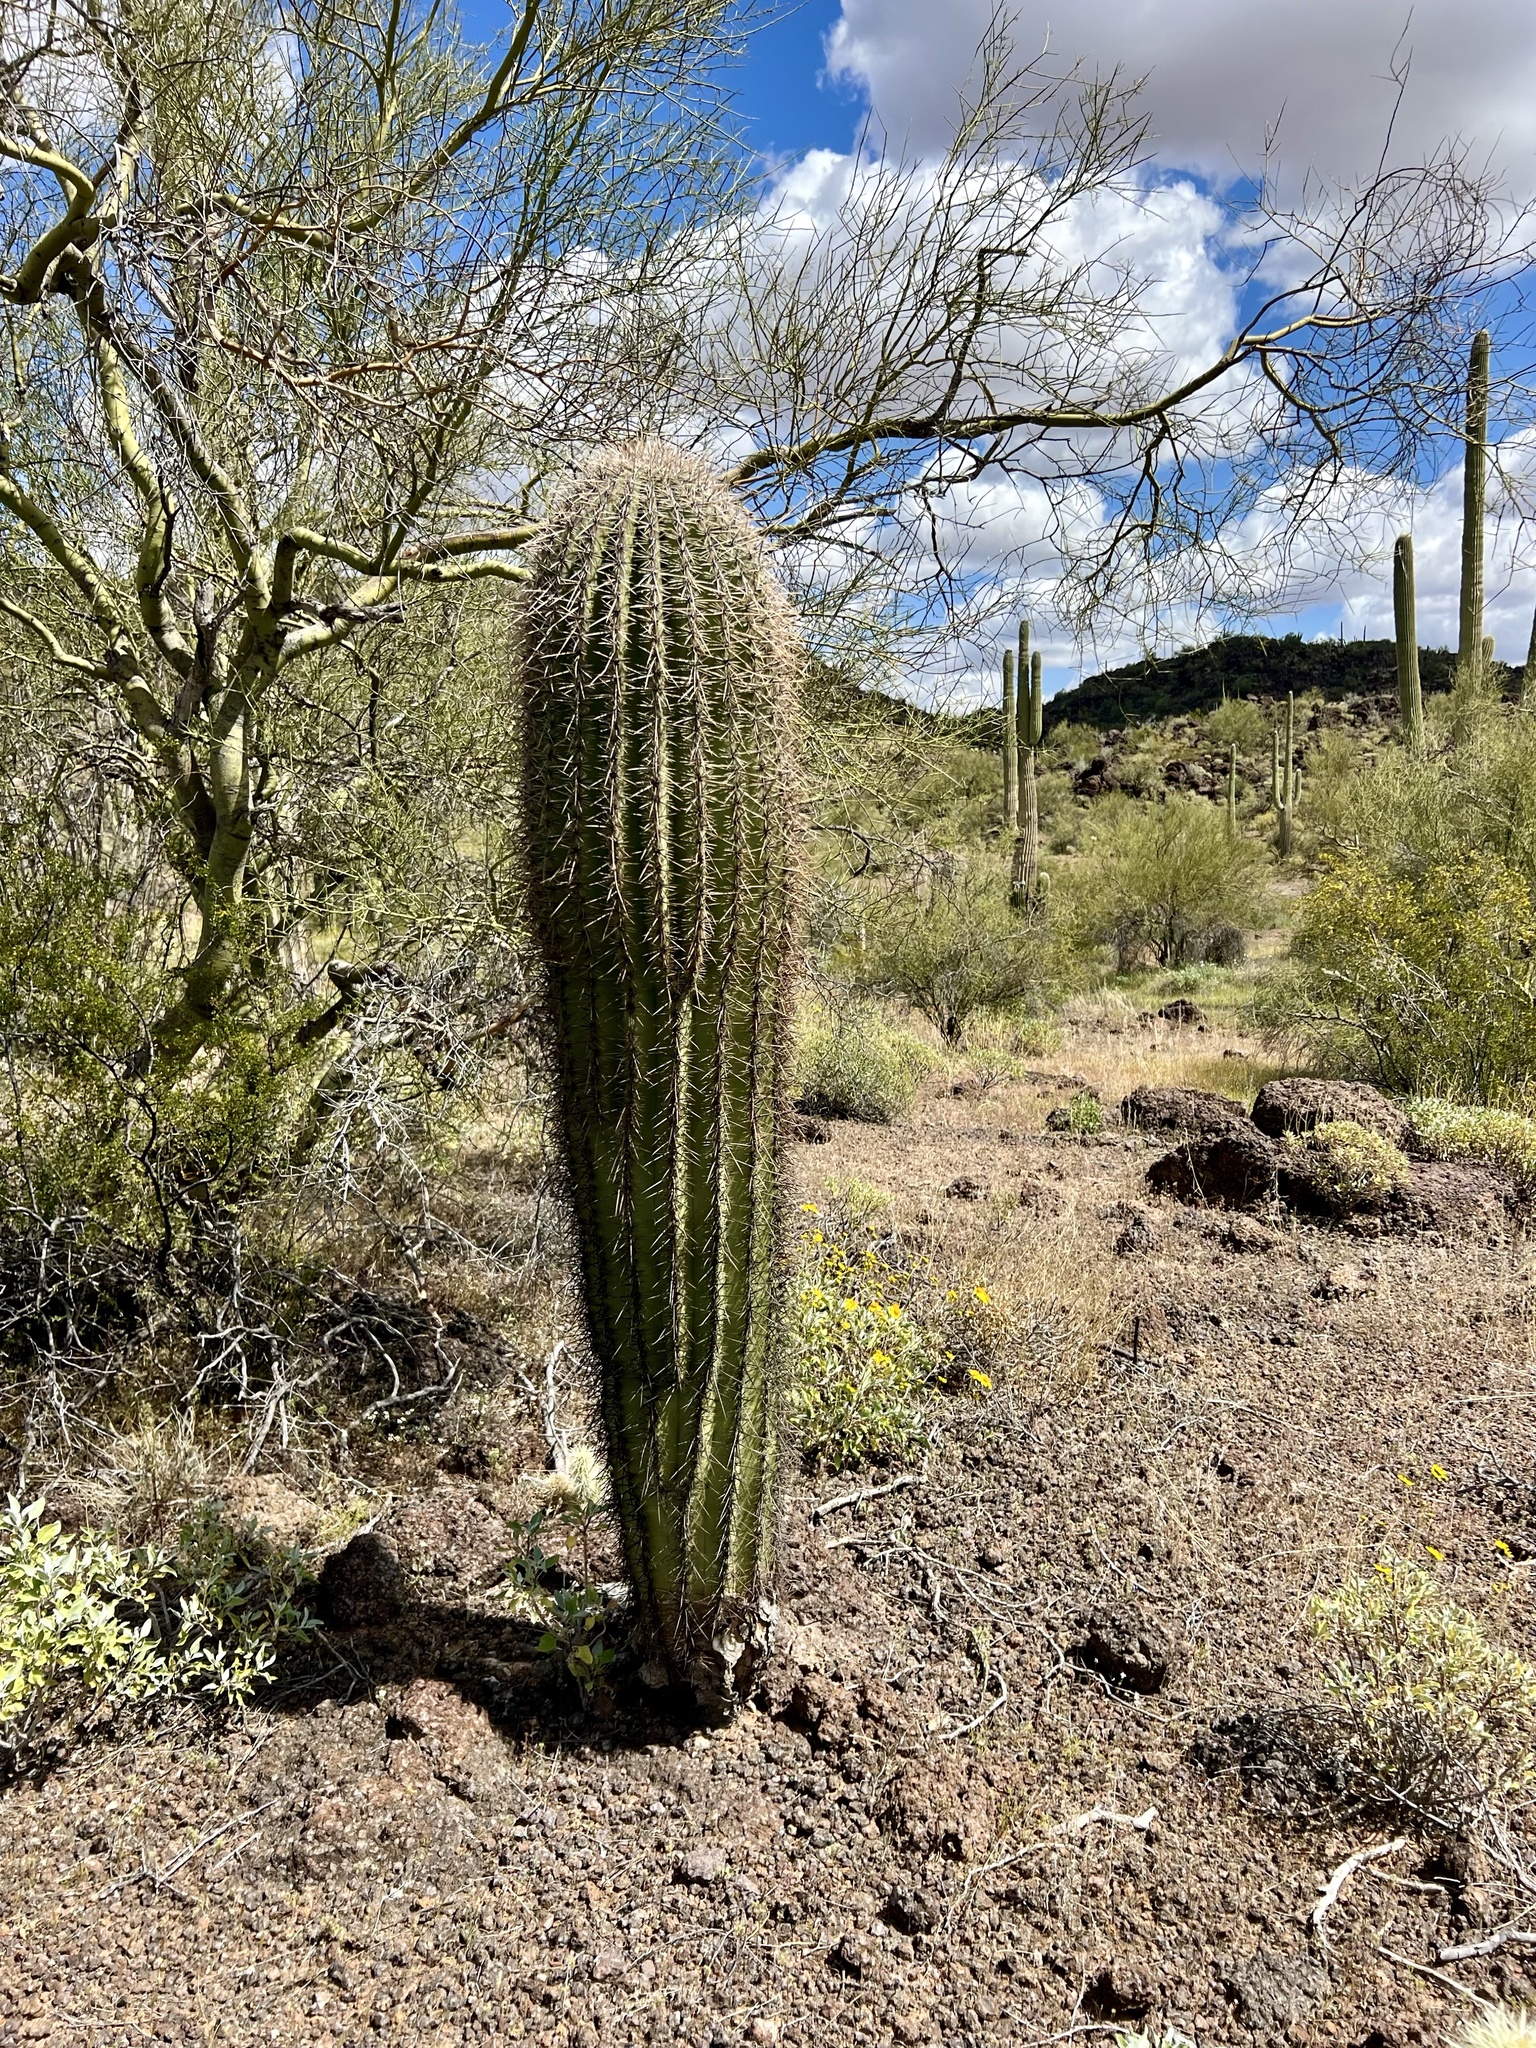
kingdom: Plantae
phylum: Tracheophyta
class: Magnoliopsida
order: Caryophyllales
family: Cactaceae
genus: Carnegiea
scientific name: Carnegiea gigantea
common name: Saguaro
